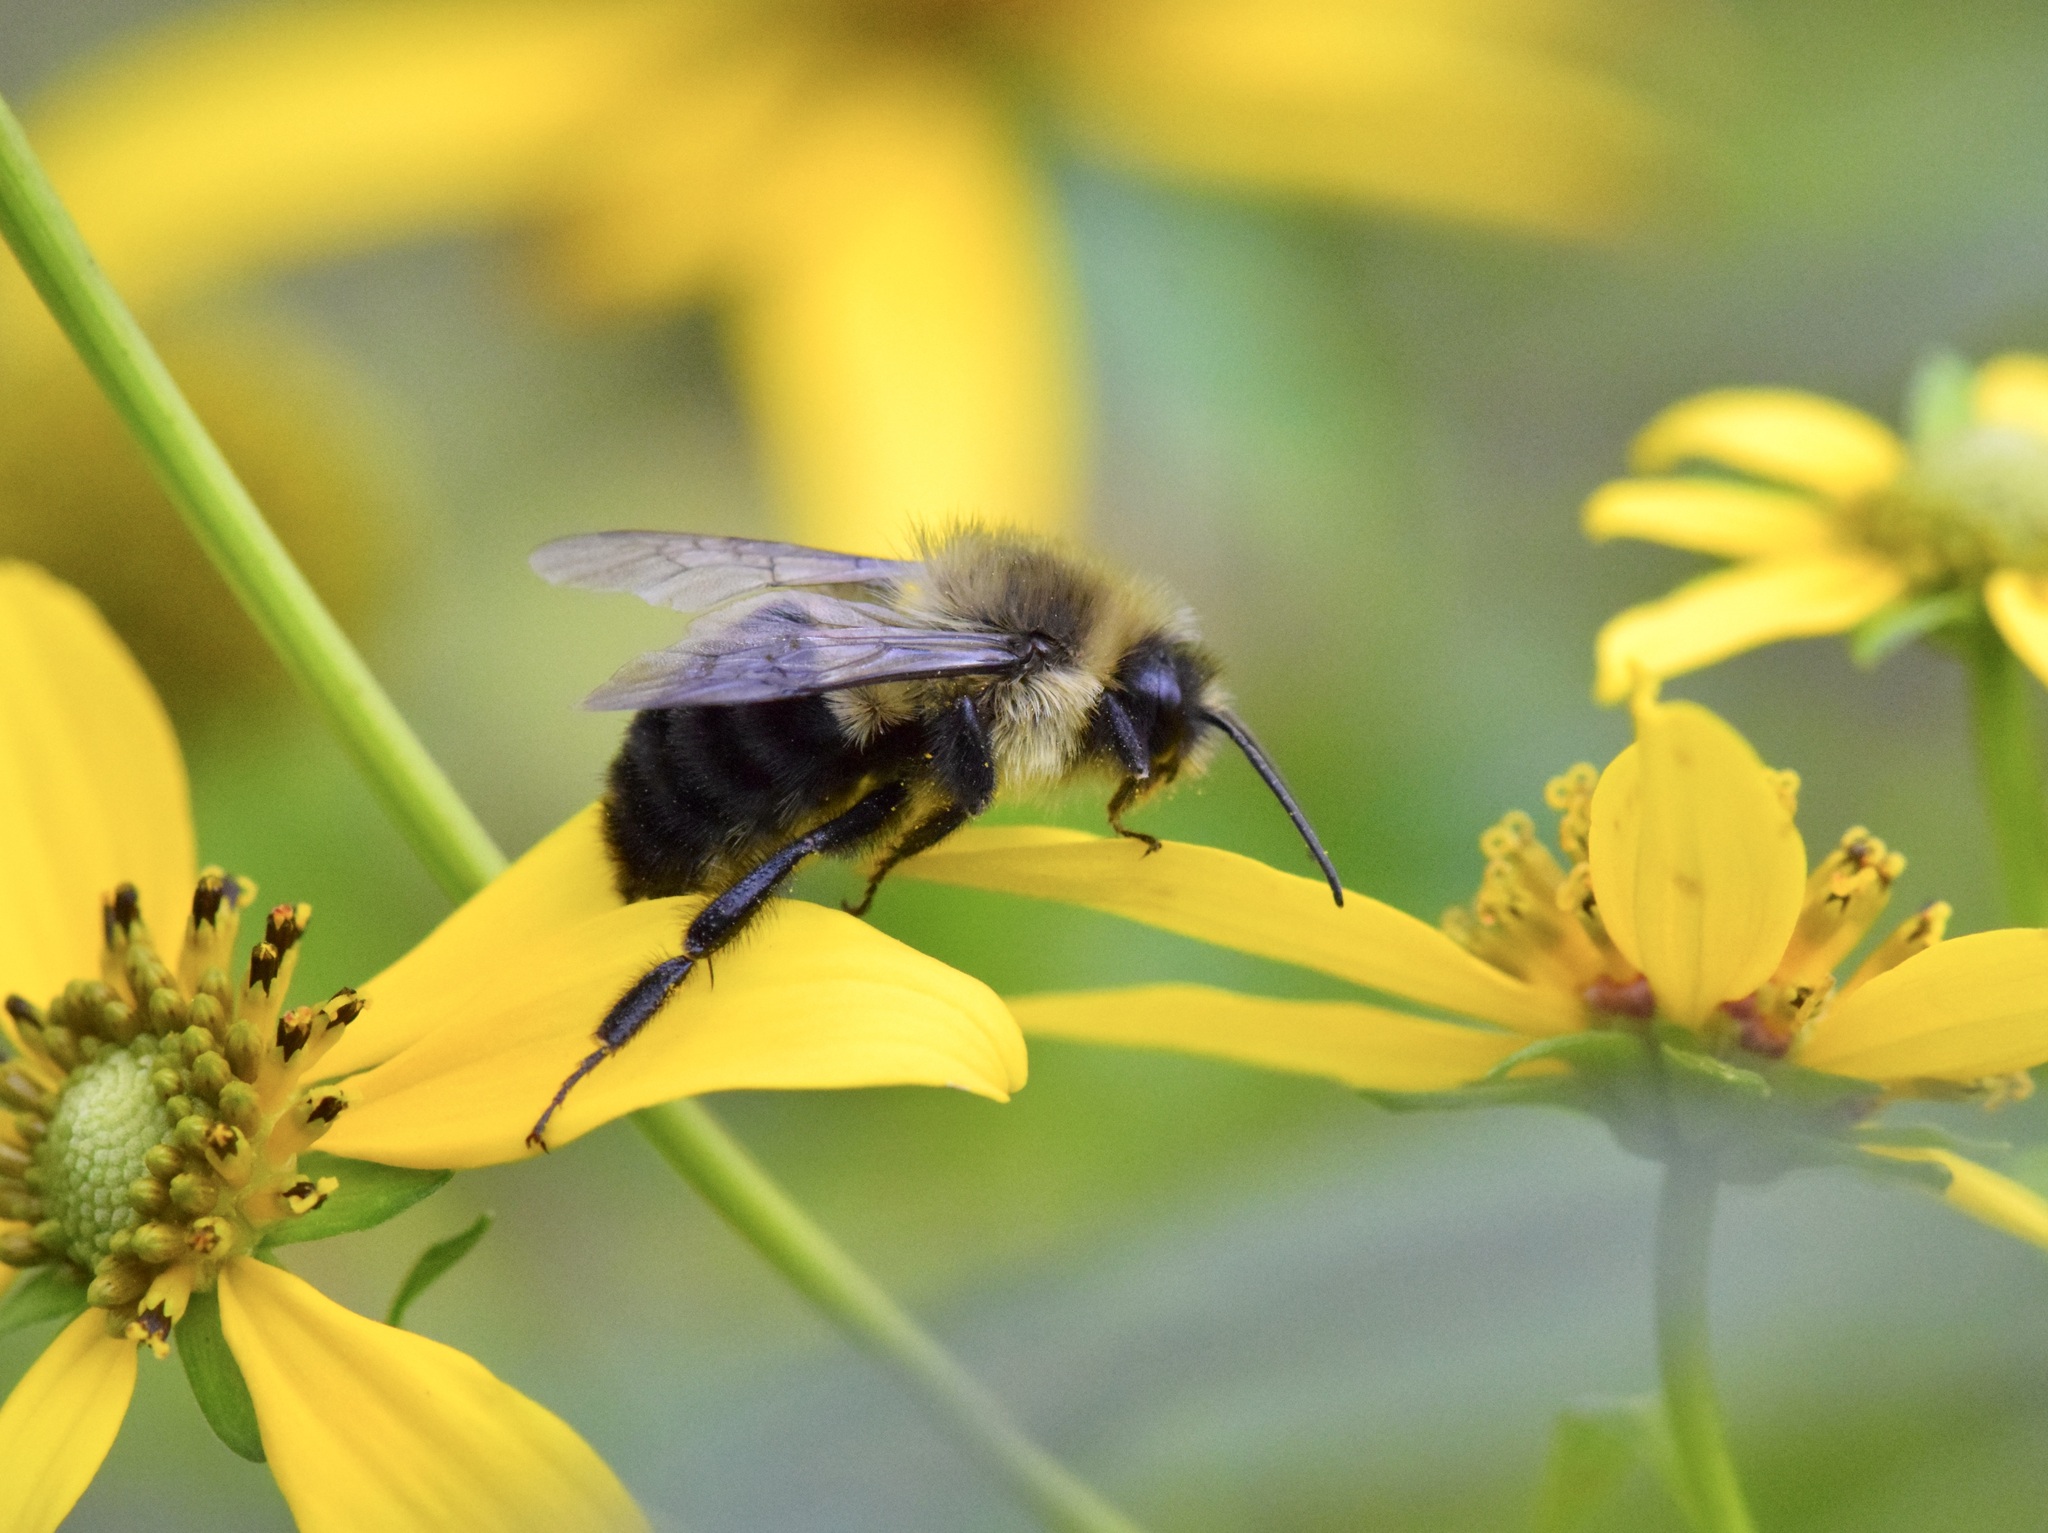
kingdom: Animalia
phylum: Arthropoda
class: Insecta
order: Hymenoptera
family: Apidae
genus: Bombus
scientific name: Bombus impatiens
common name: Common eastern bumble bee
